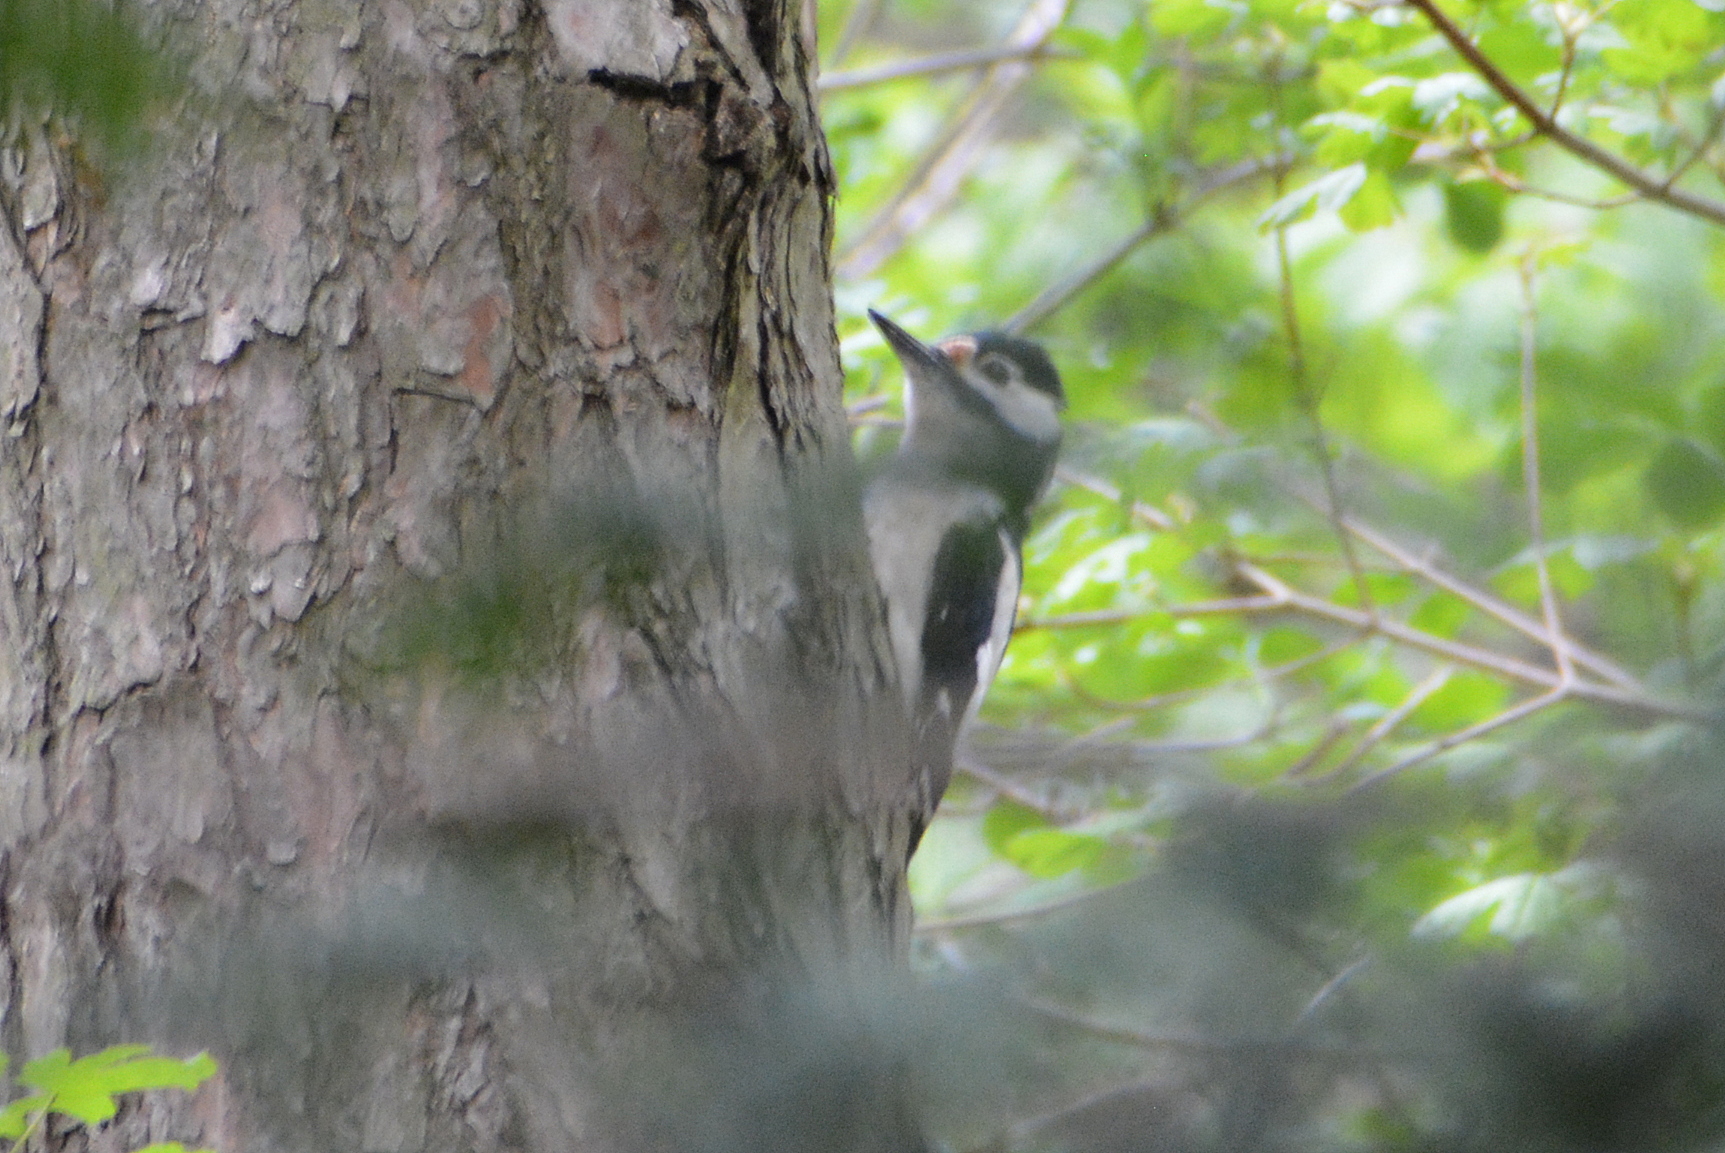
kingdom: Animalia
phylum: Chordata
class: Aves
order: Piciformes
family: Picidae
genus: Dendrocopos
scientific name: Dendrocopos major
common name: Great spotted woodpecker
